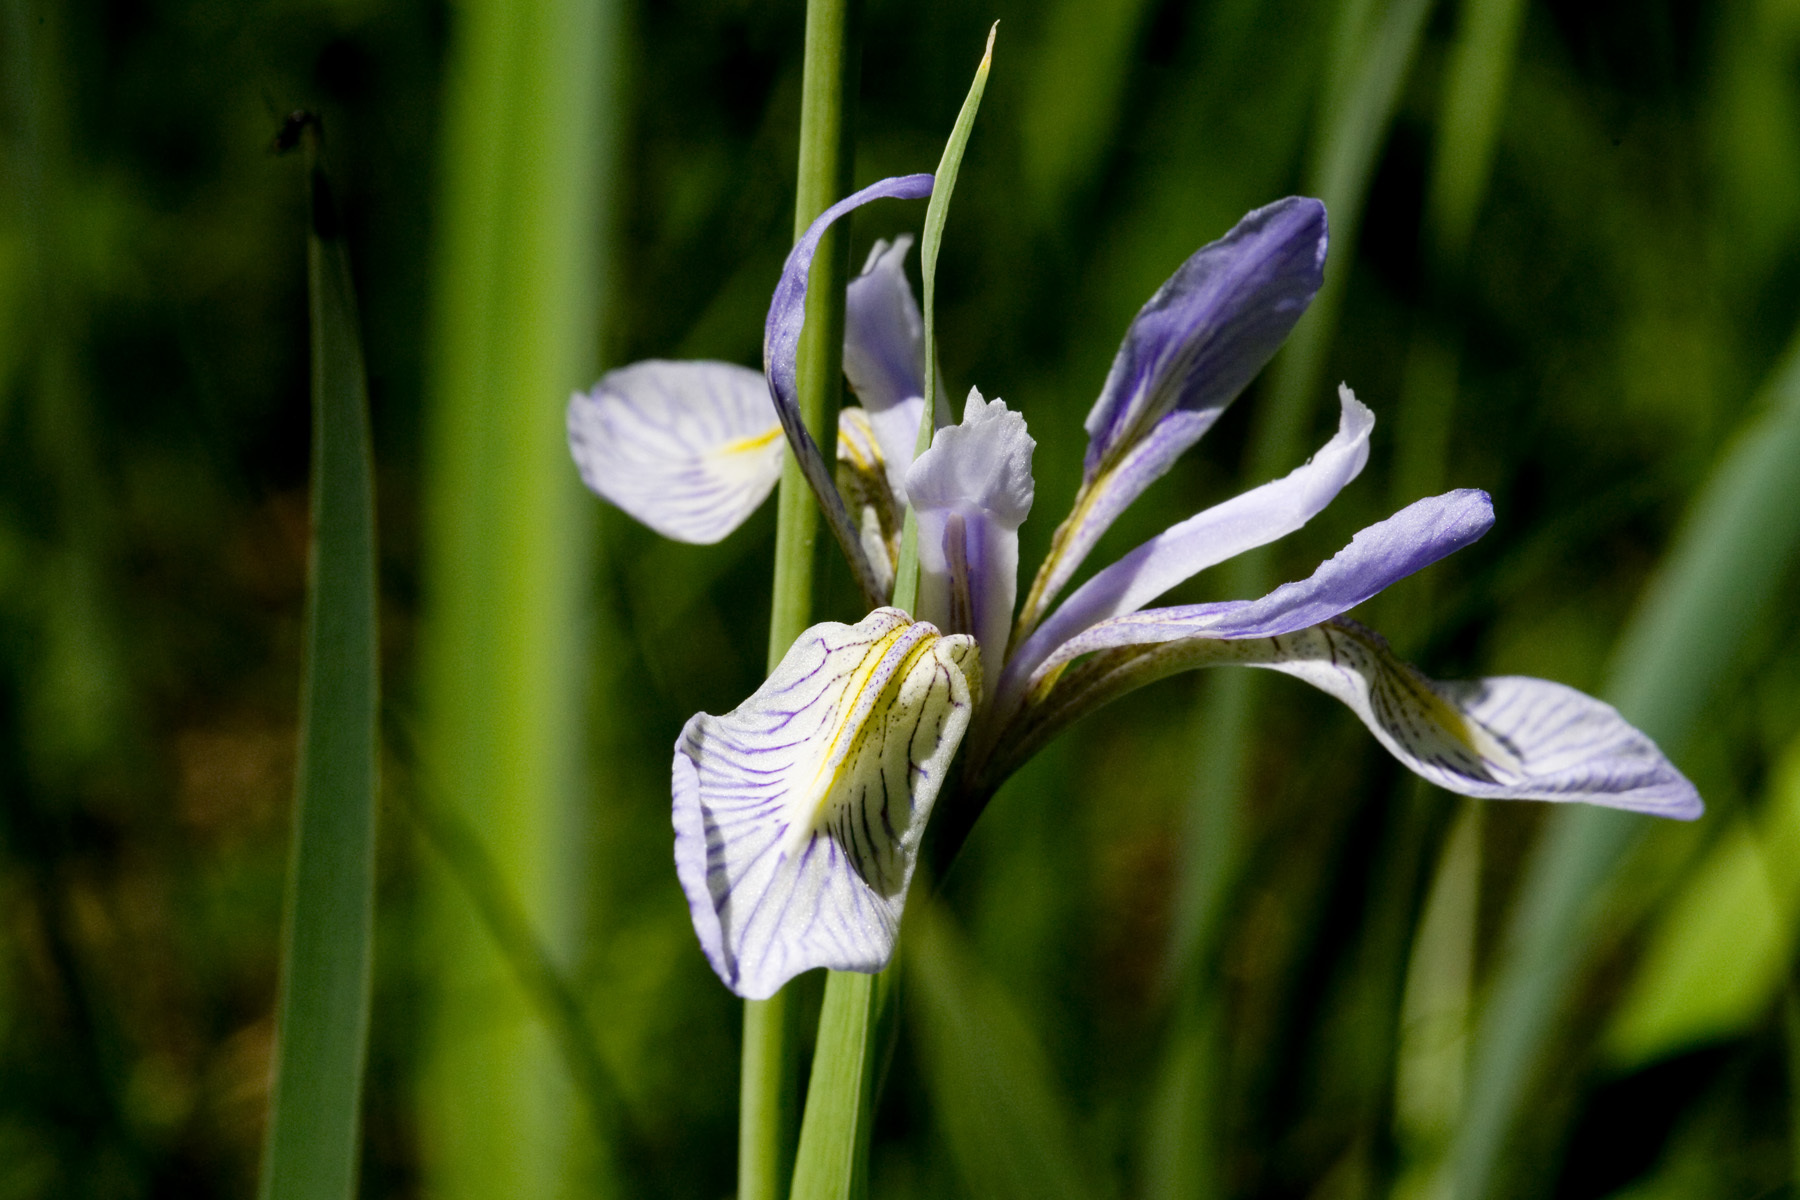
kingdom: Plantae
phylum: Tracheophyta
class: Liliopsida
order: Asparagales
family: Iridaceae
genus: Iris
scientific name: Iris missouriensis
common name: Rocky mountain iris
